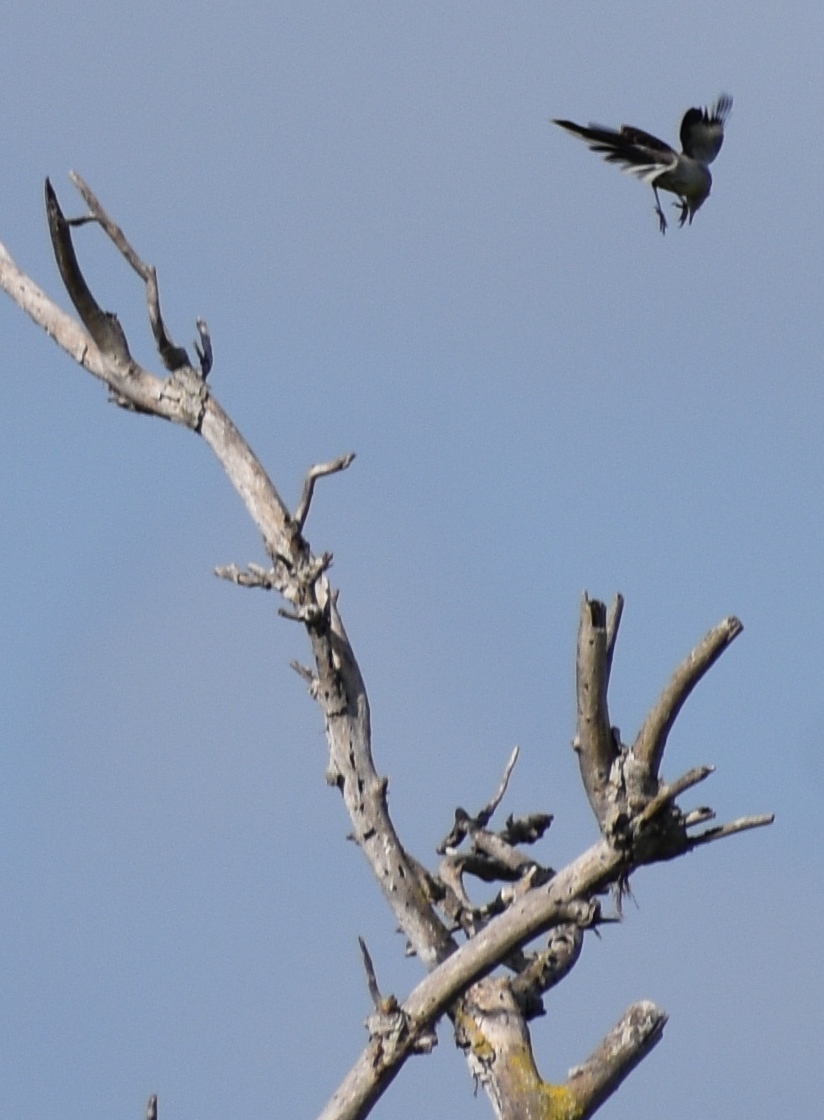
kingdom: Animalia
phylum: Chordata
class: Aves
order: Passeriformes
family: Mimidae
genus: Mimus
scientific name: Mimus polyglottos
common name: Northern mockingbird
